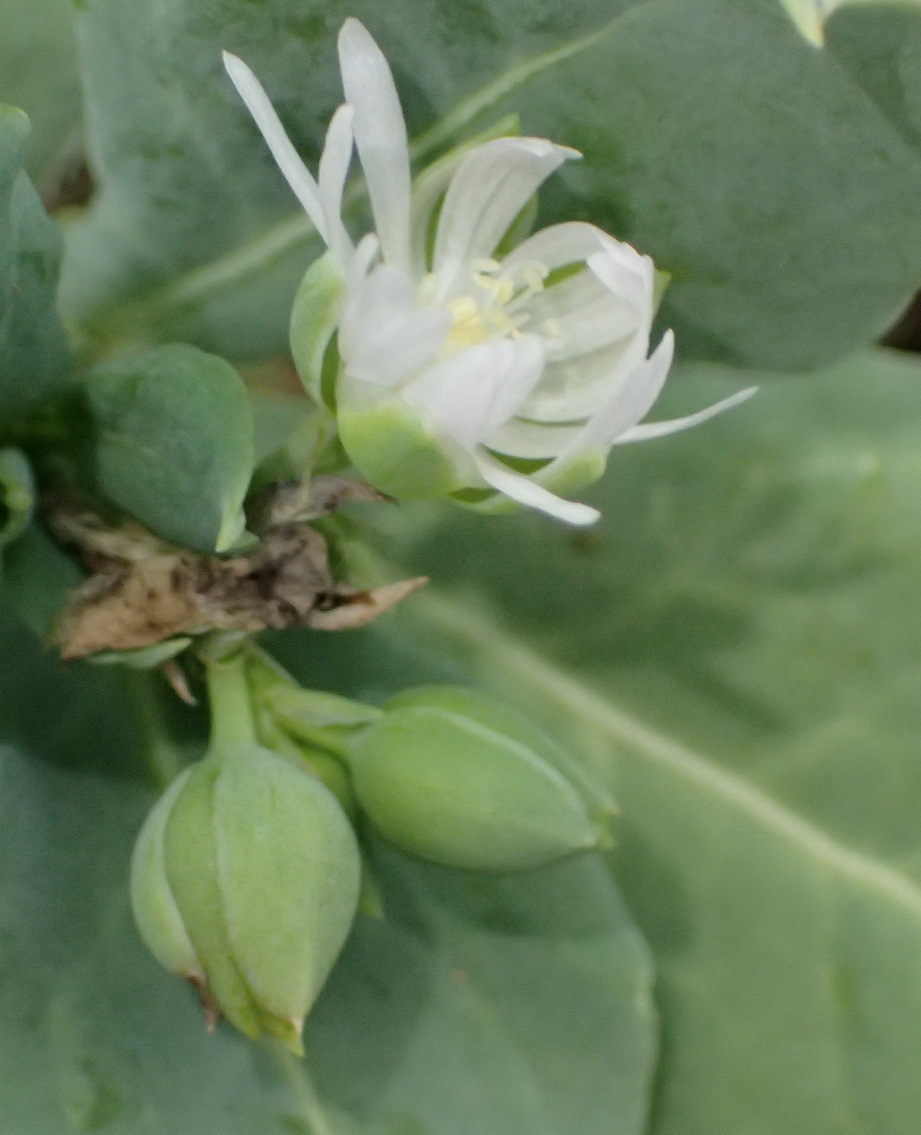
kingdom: Plantae
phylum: Tracheophyta
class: Magnoliopsida
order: Caryophyllales
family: Corbichoniaceae
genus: Corbichonia
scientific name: Corbichonia decumbens
